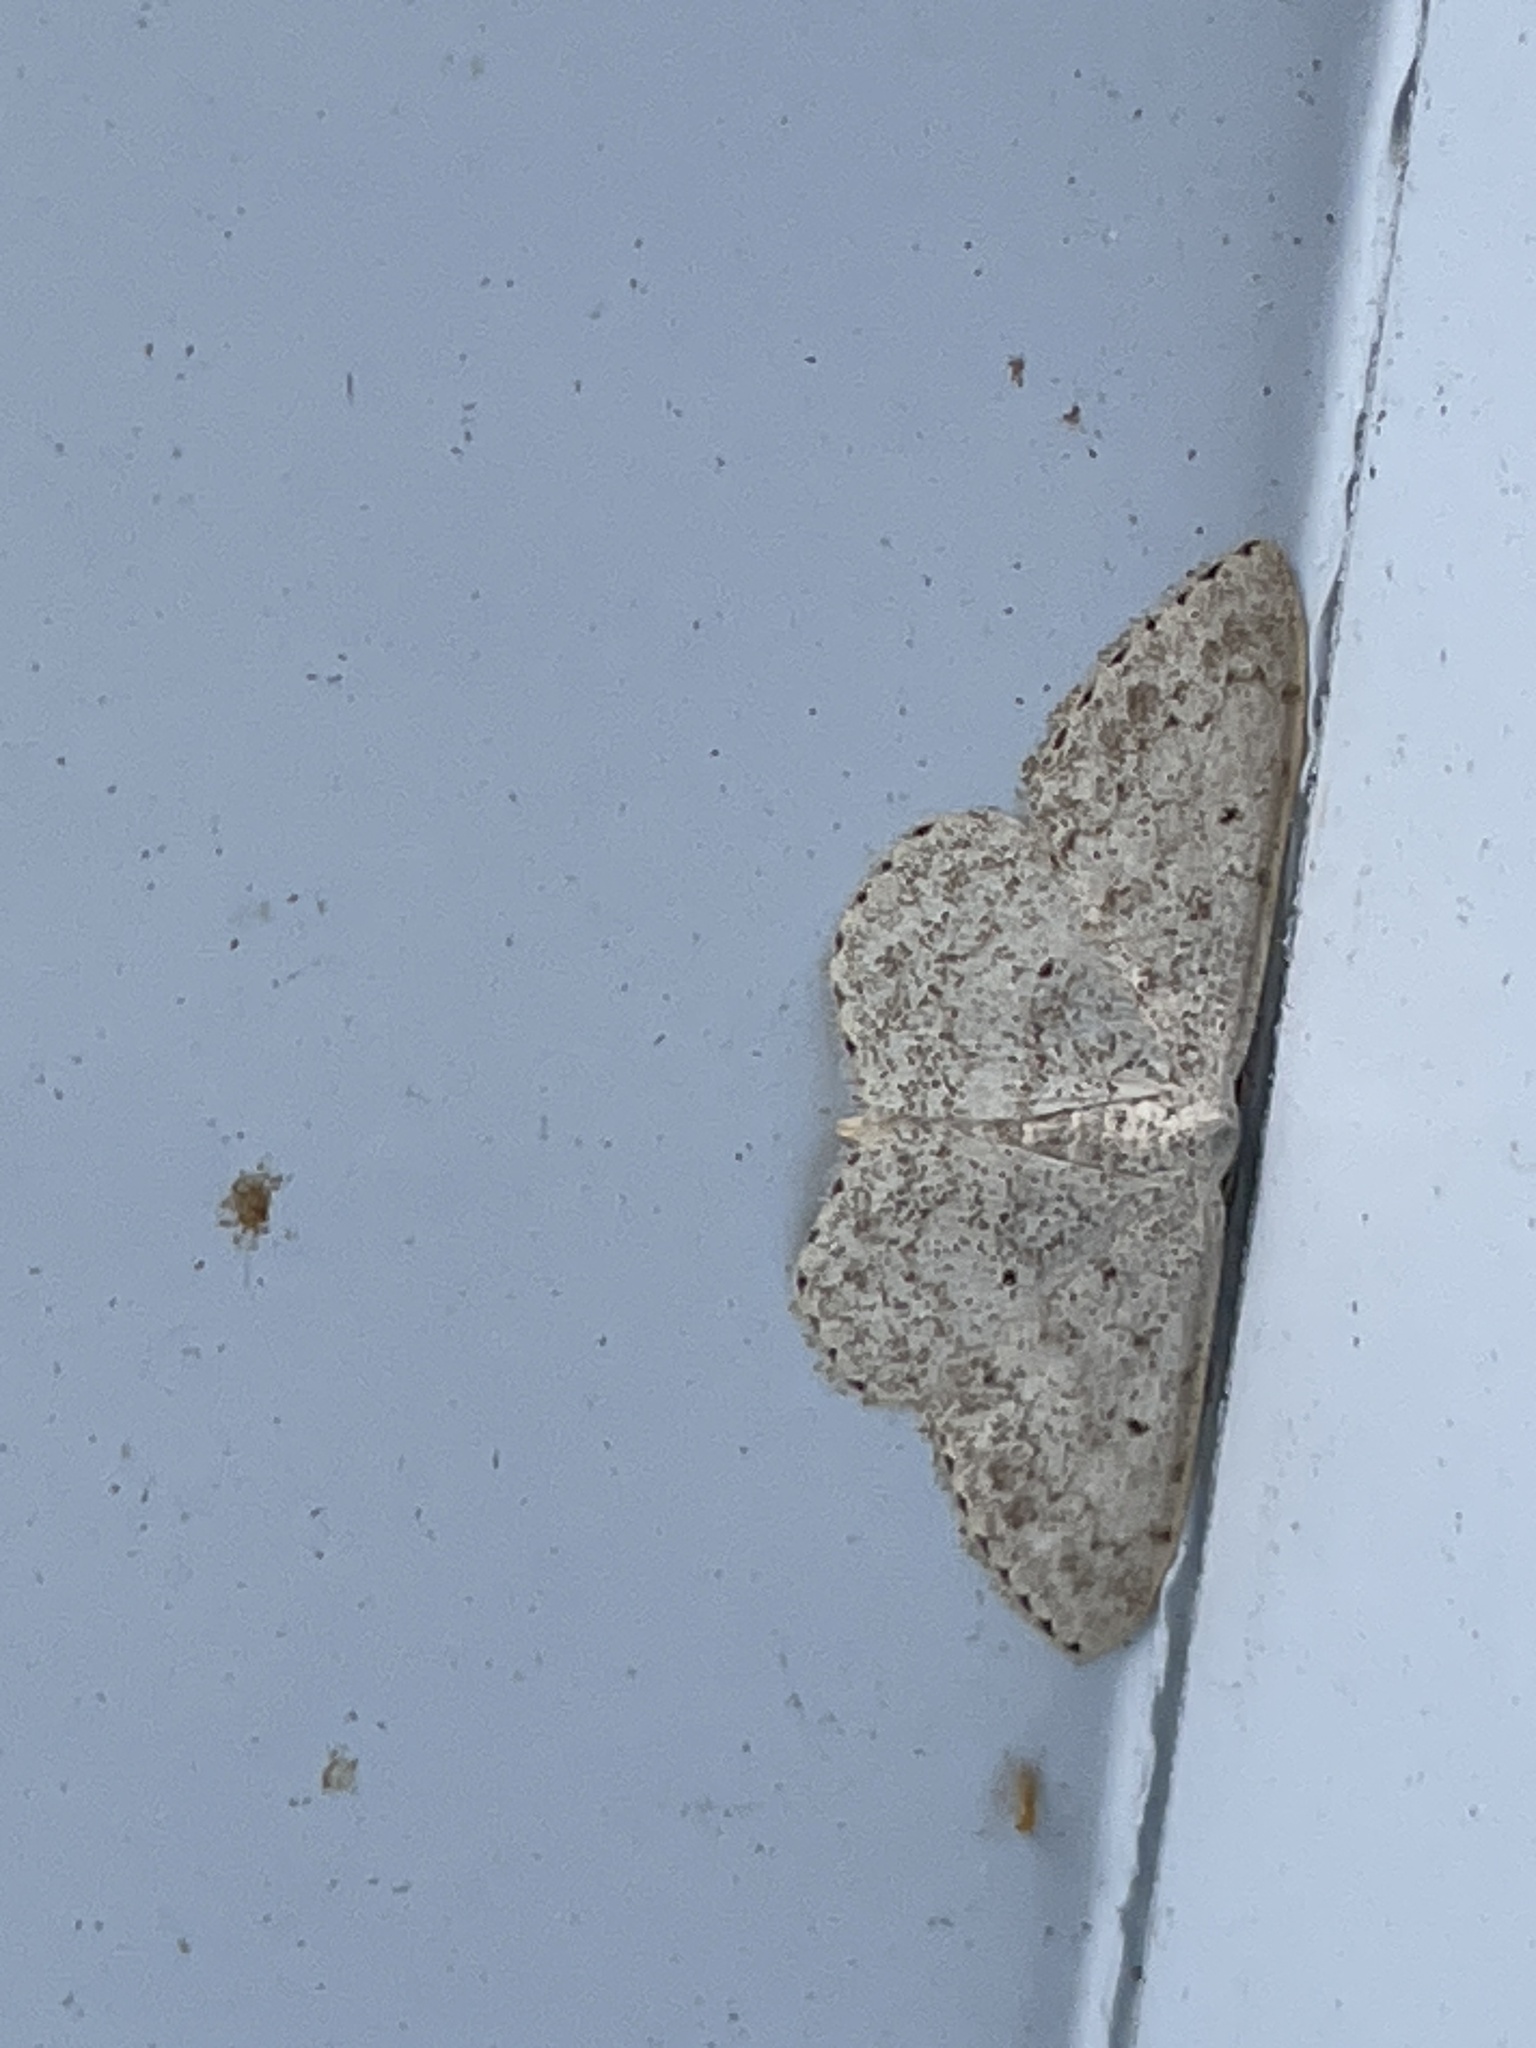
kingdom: Animalia
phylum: Arthropoda
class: Insecta
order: Lepidoptera
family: Geometridae
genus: Scopula
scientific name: Scopula marginepunctata
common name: Mullein wave
